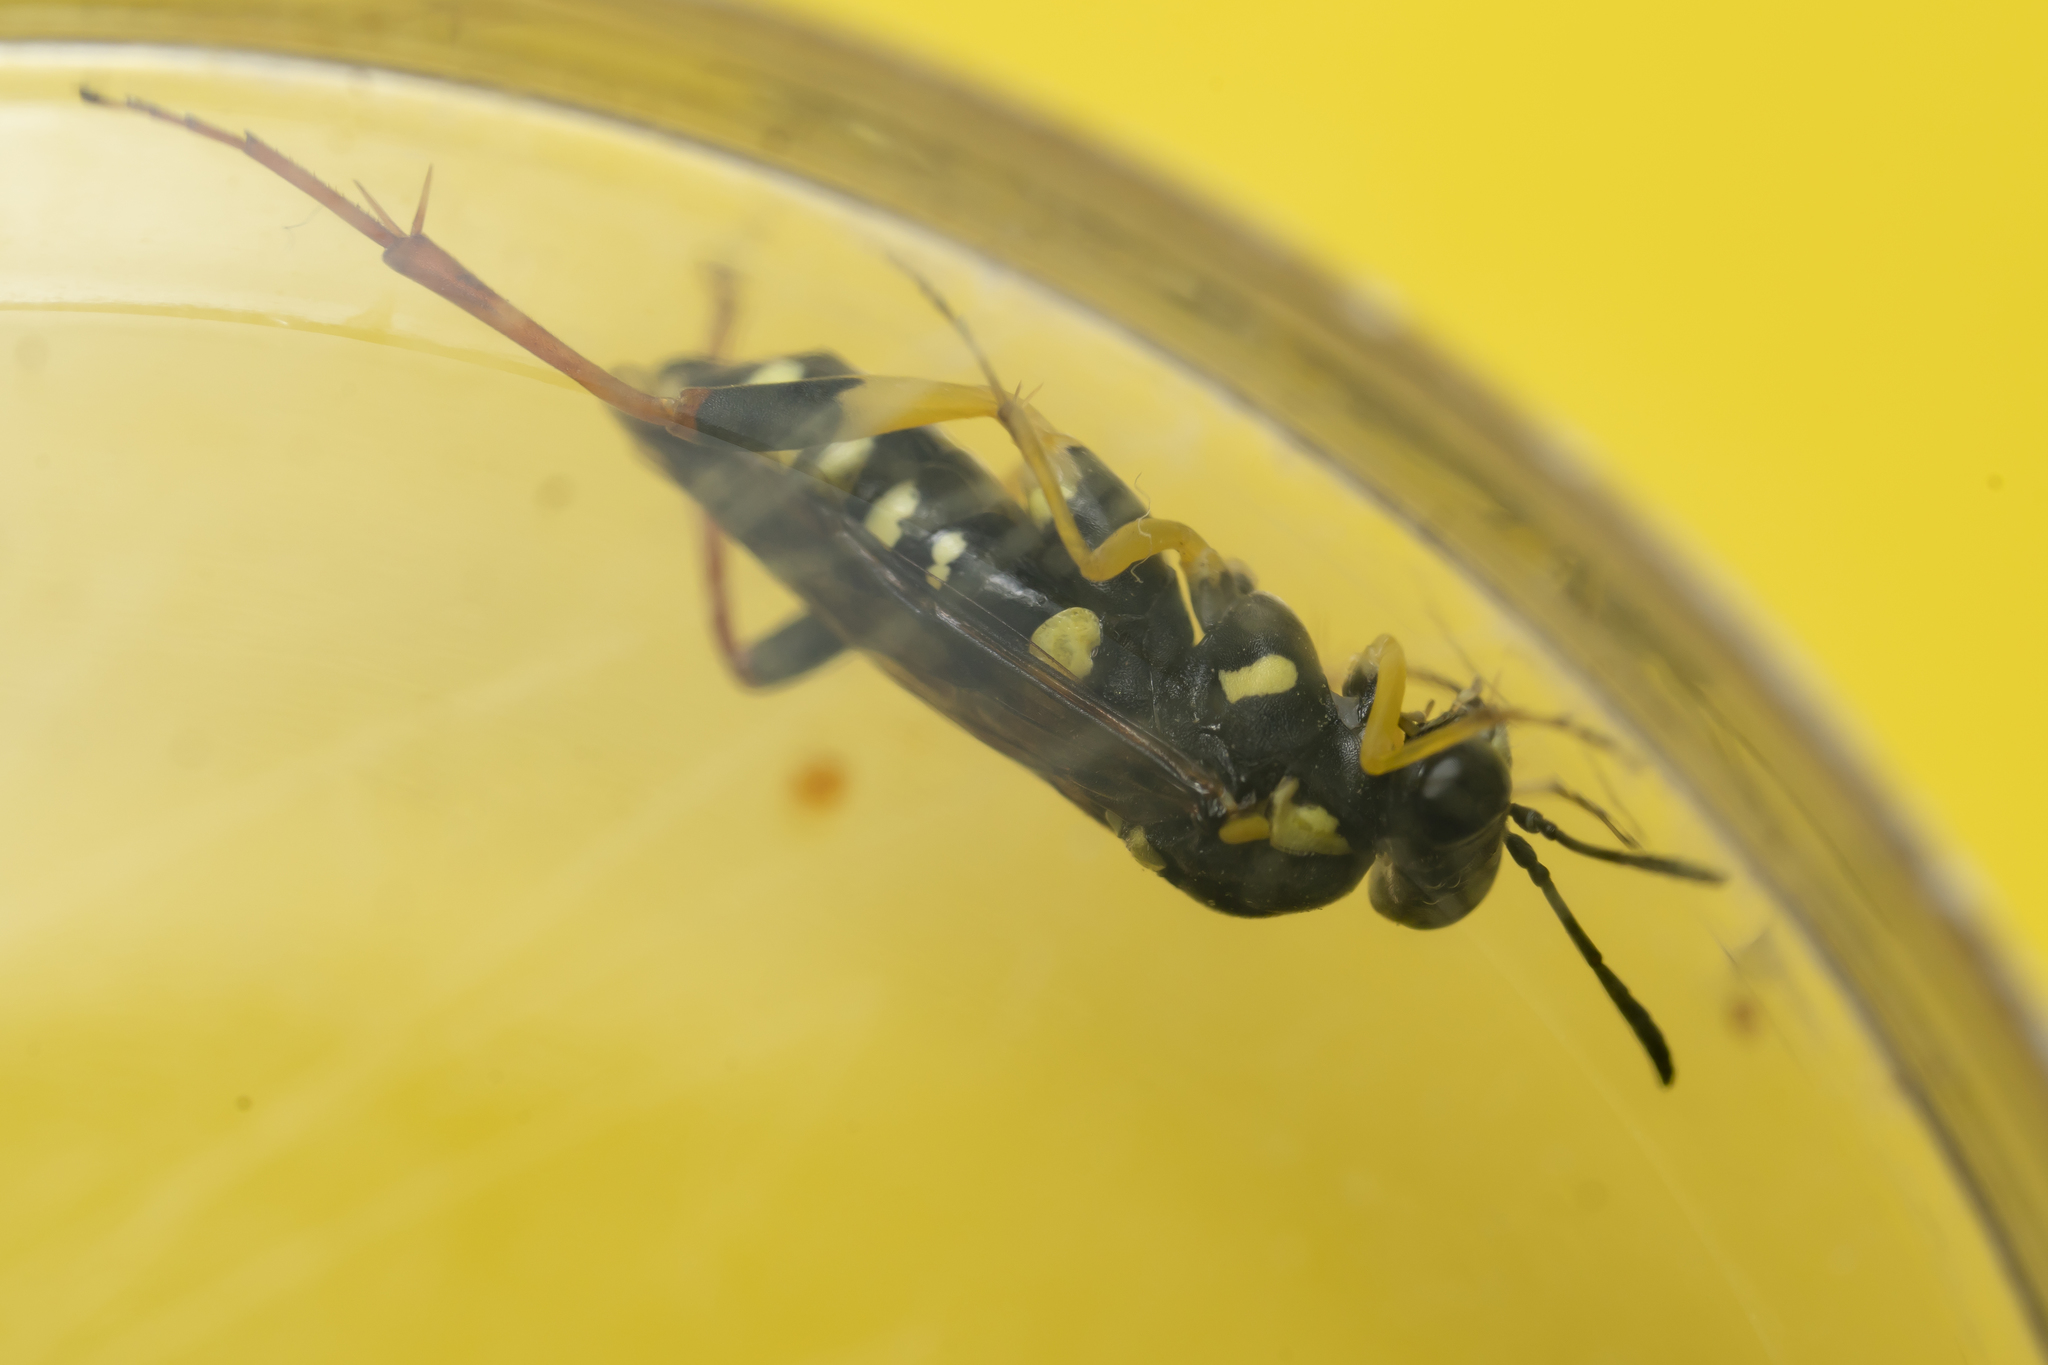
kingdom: Animalia
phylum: Arthropoda
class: Insecta
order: Hymenoptera
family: Tenthredinidae
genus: Macrophya
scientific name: Macrophya postica
